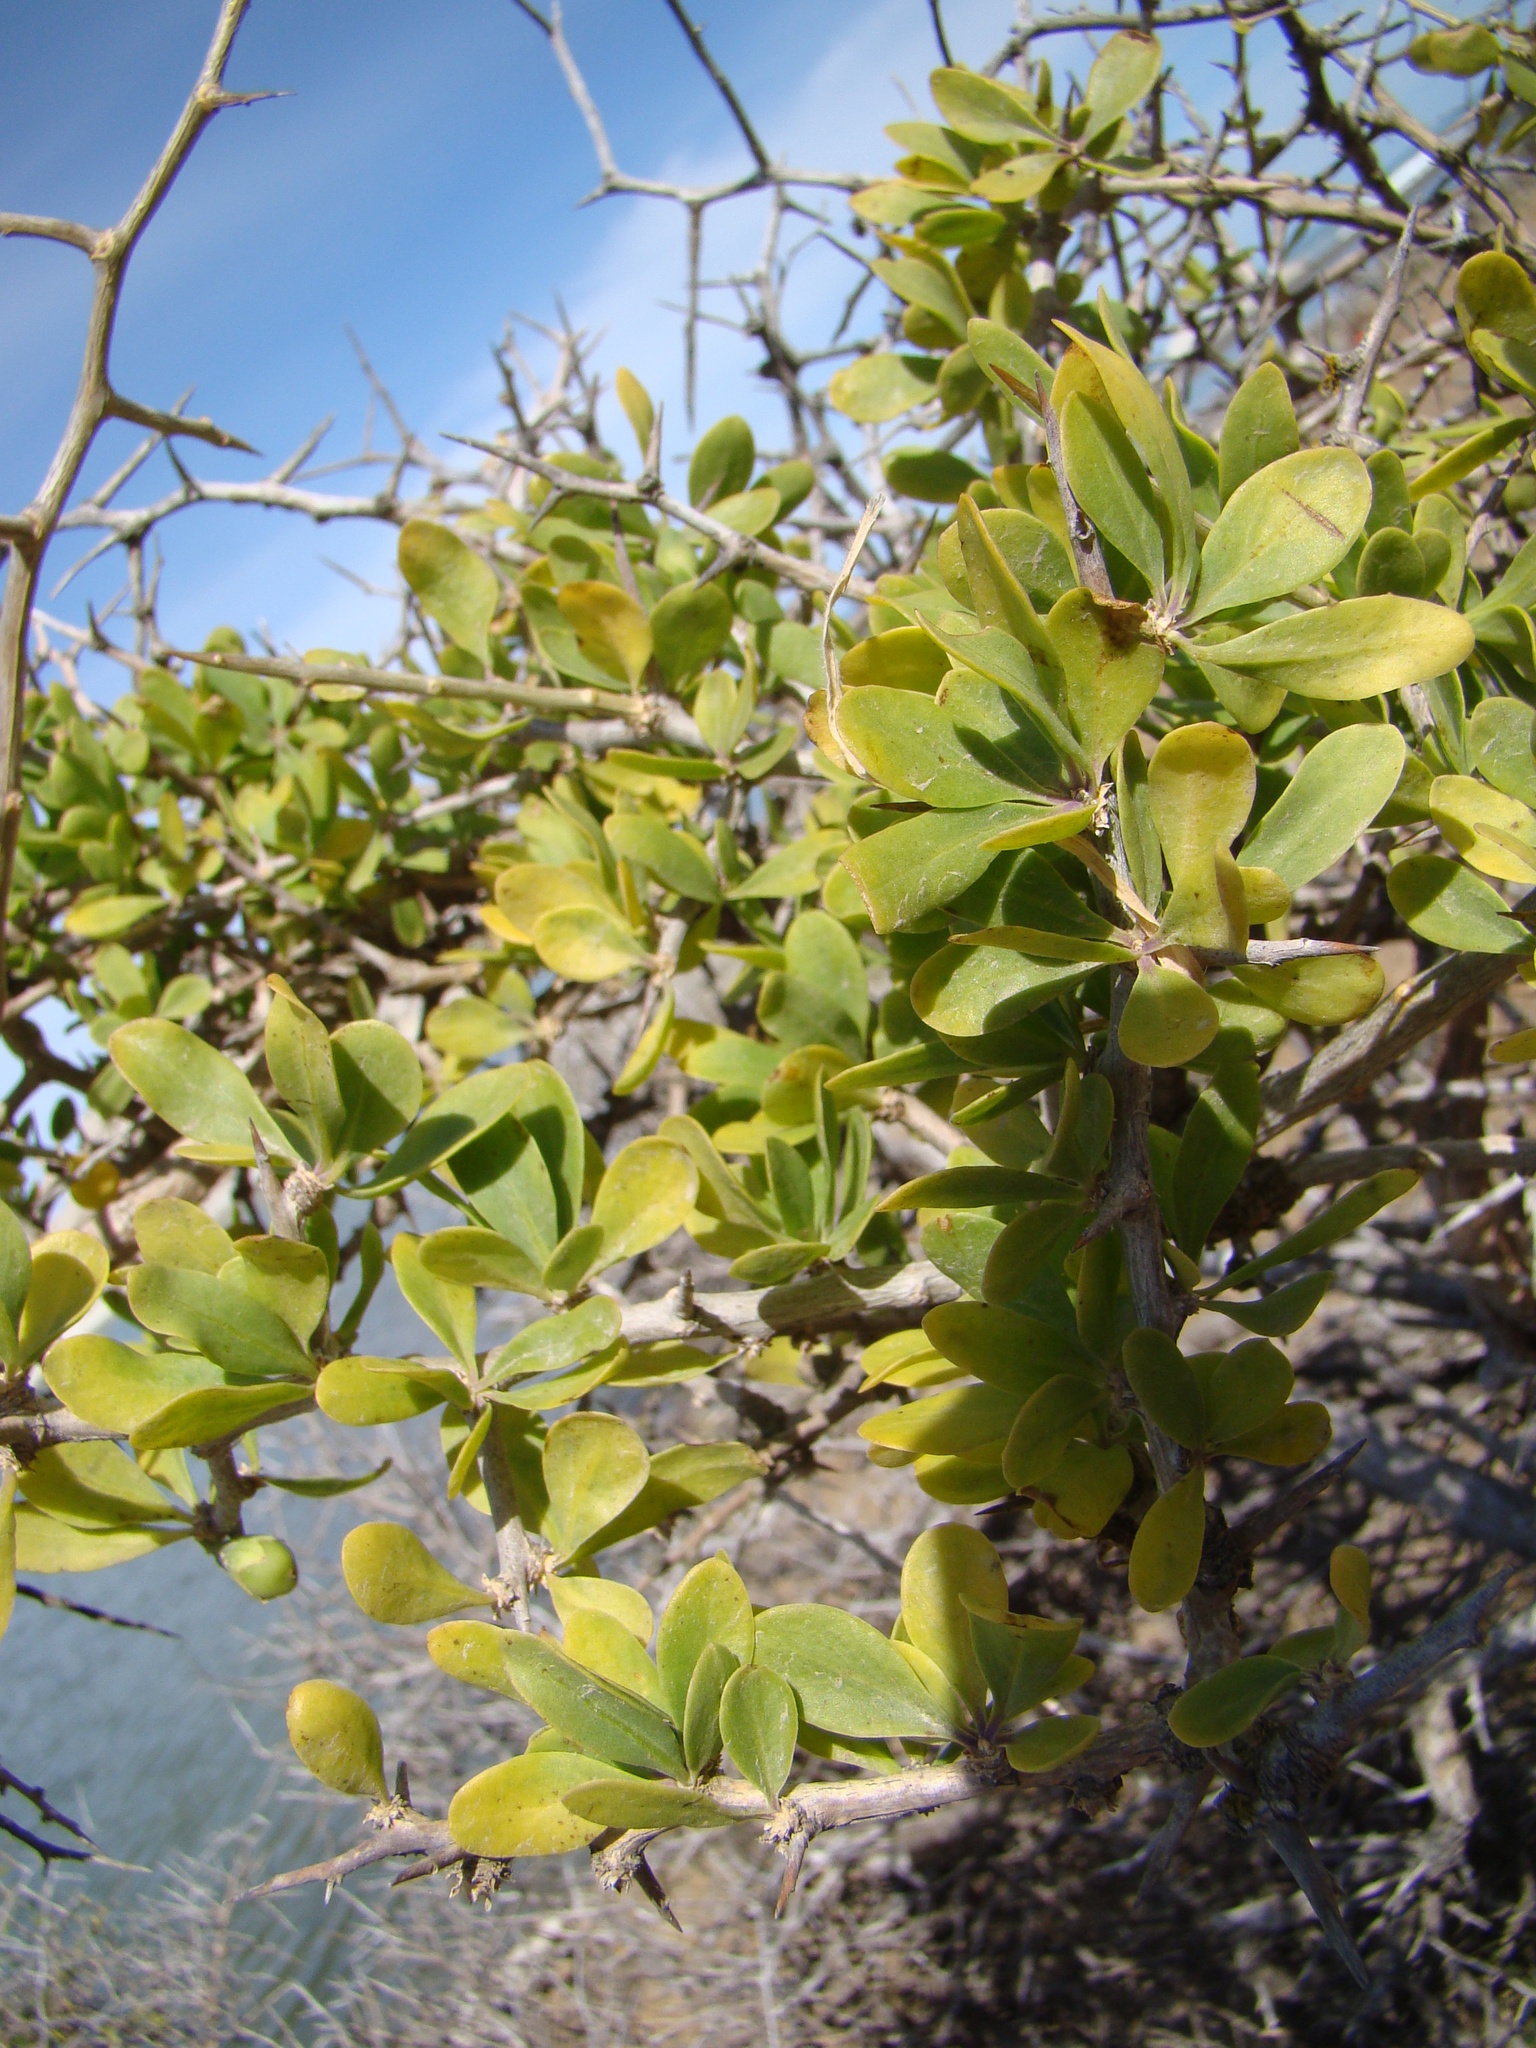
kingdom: Plantae
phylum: Tracheophyta
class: Magnoliopsida
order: Solanales
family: Solanaceae
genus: Lycium
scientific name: Lycium ferocissimum
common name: African boxthorn
